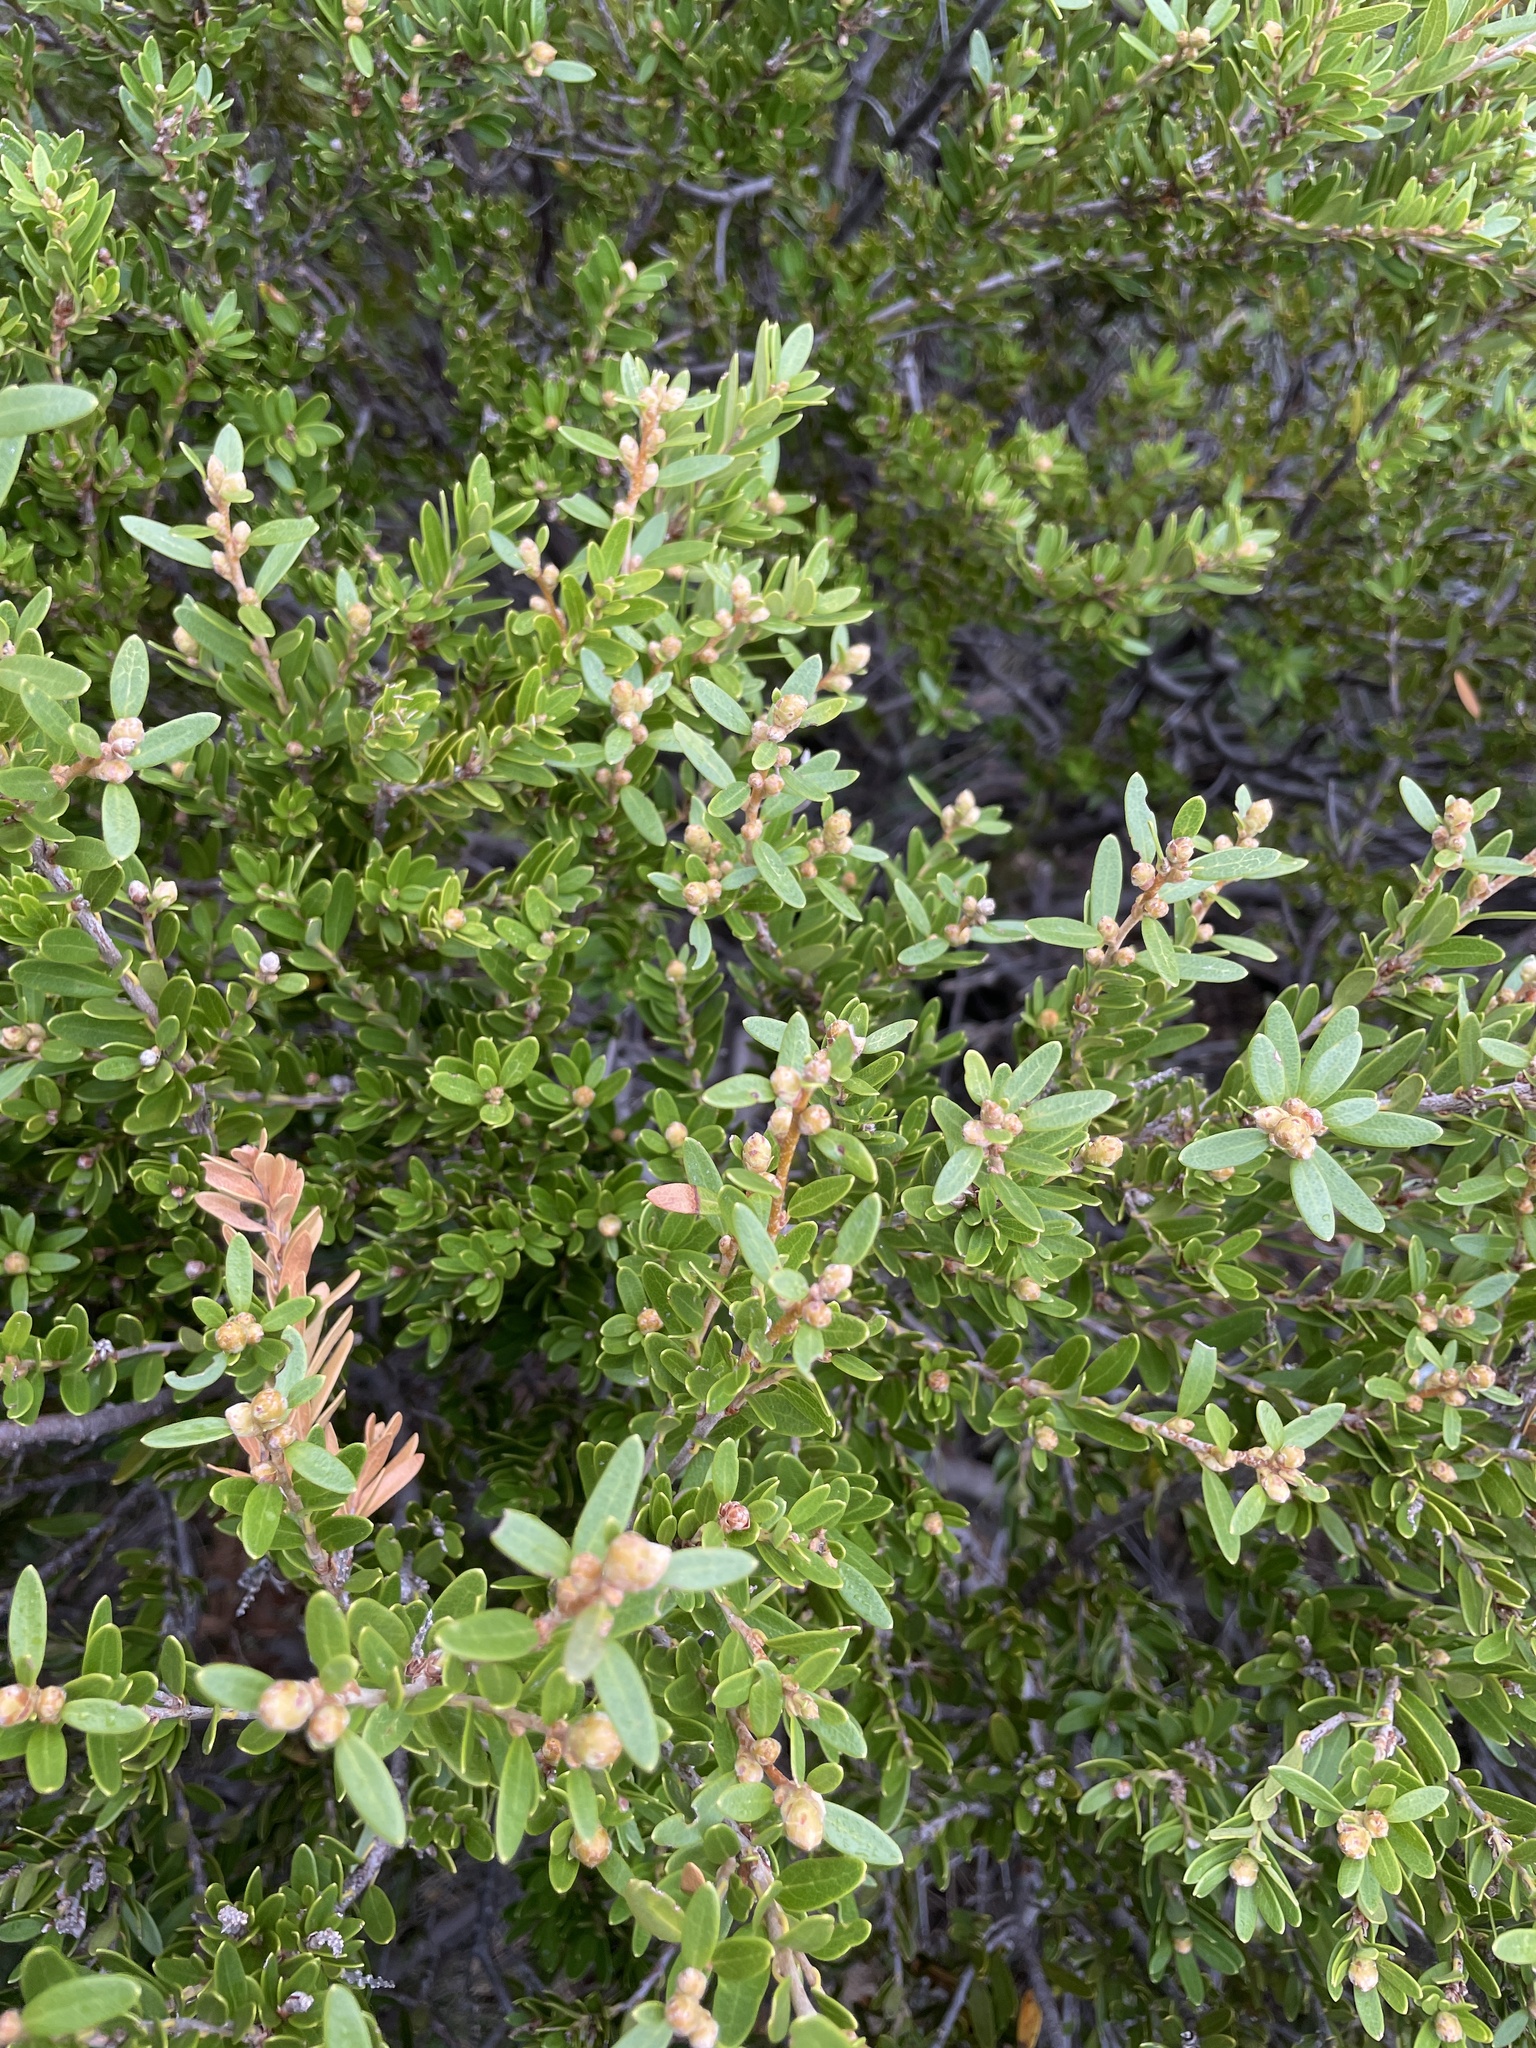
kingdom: Plantae
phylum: Tracheophyta
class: Magnoliopsida
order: Proteales
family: Proteaceae
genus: Orites
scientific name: Orites lancifolius
